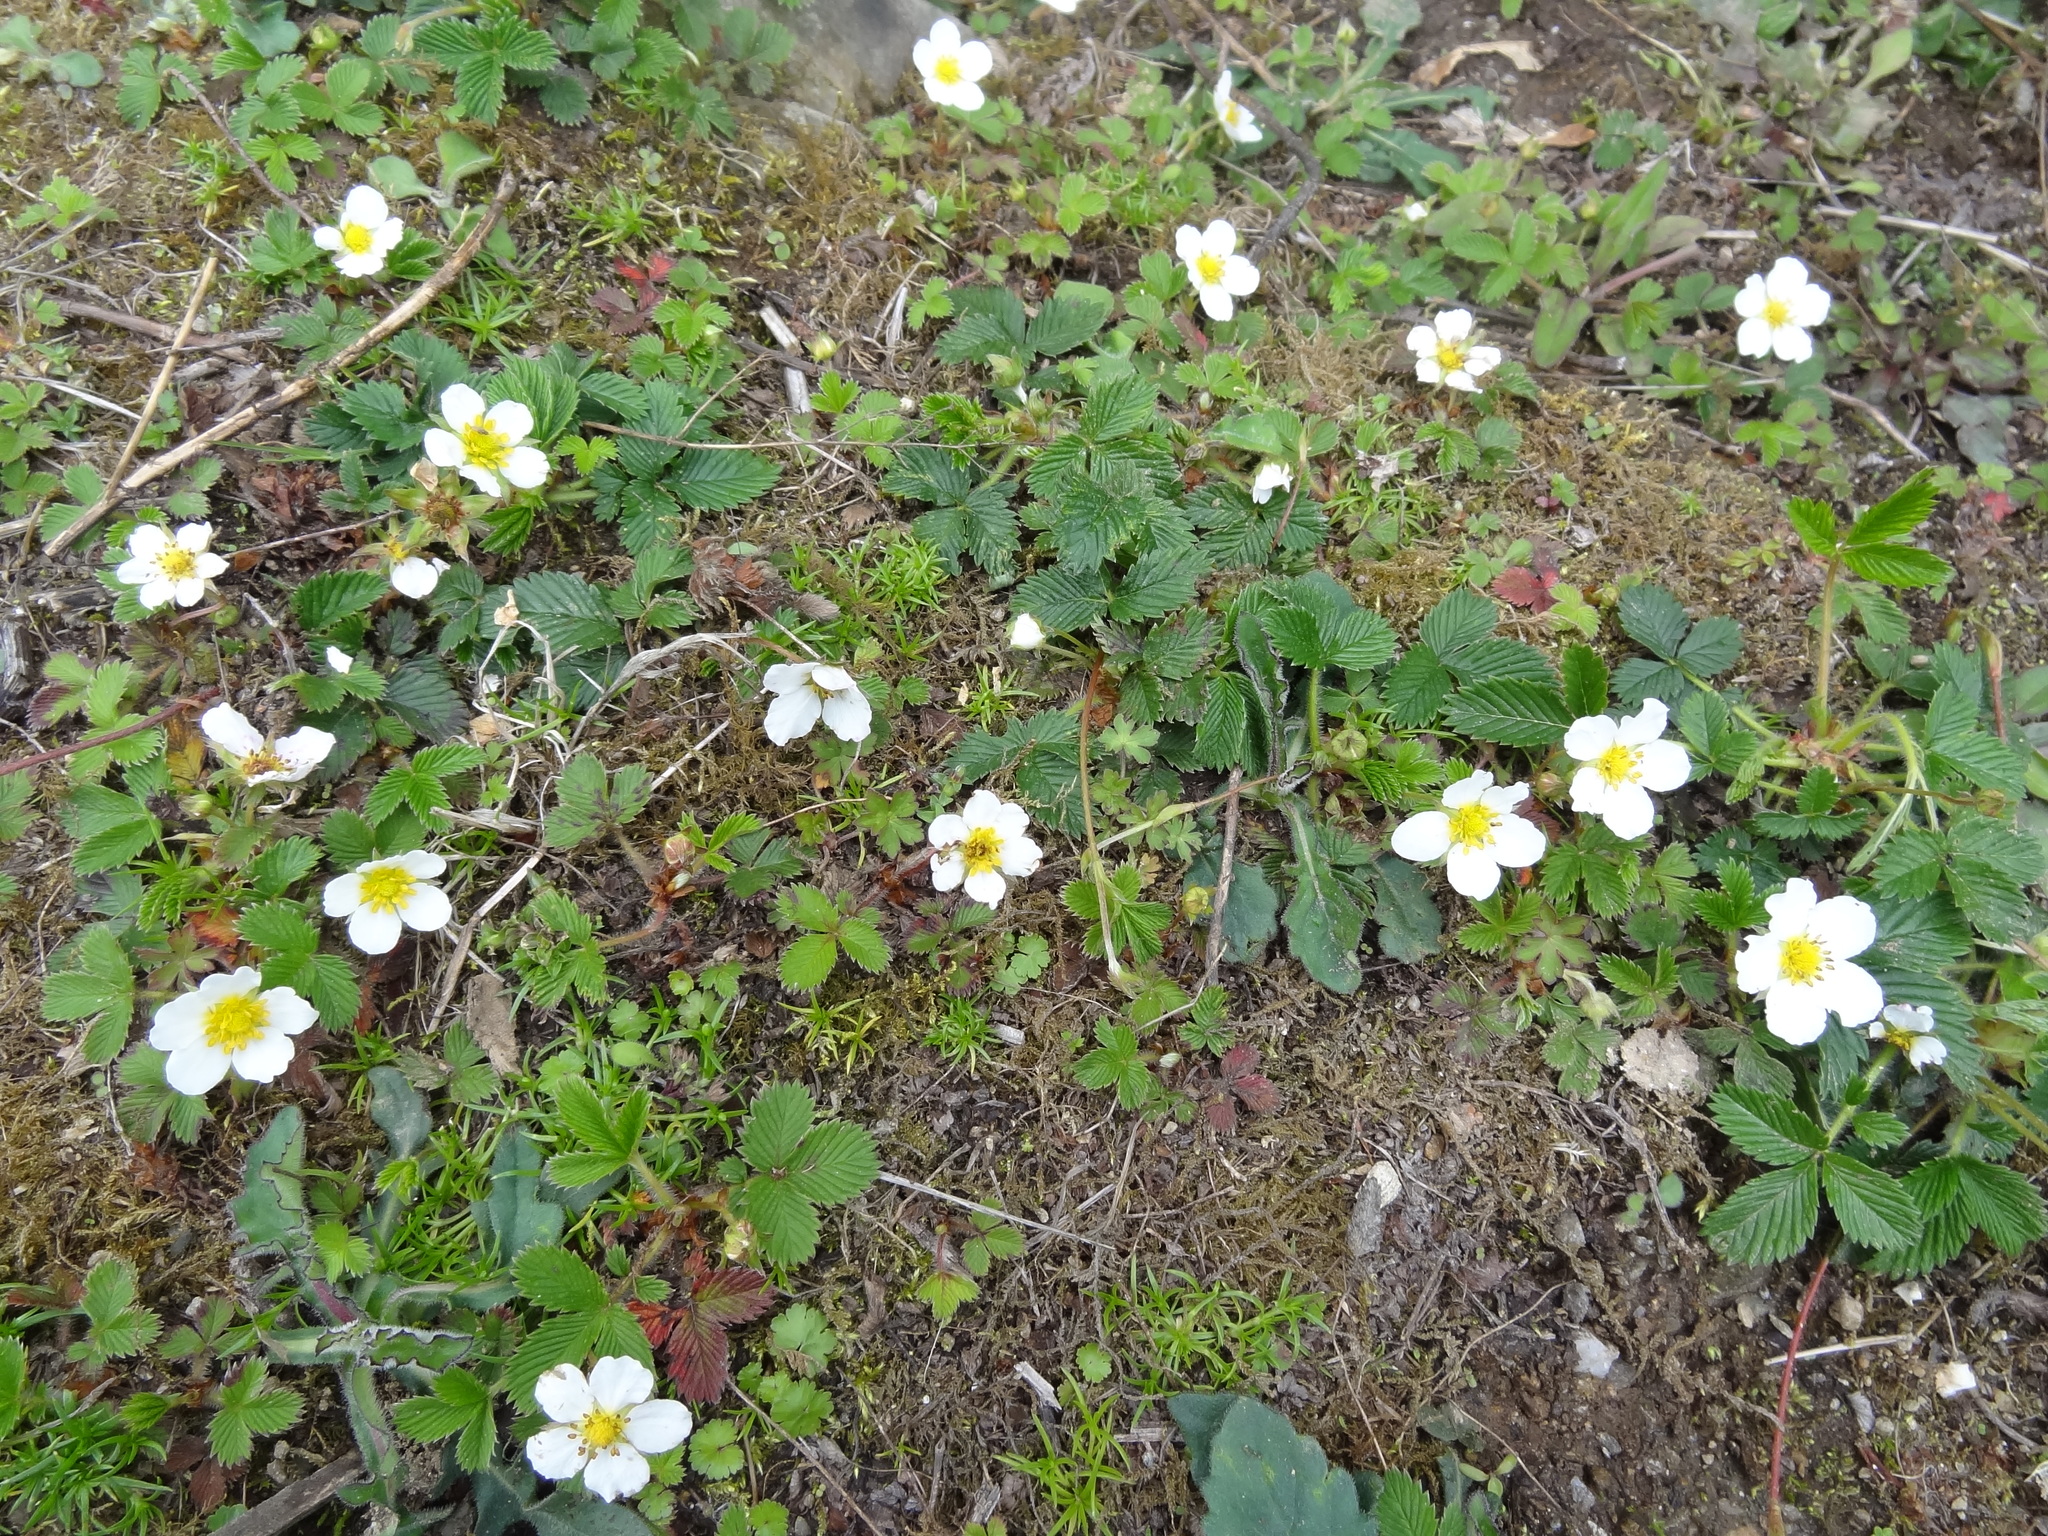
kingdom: Plantae
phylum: Tracheophyta
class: Magnoliopsida
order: Rosales
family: Rosaceae
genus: Fragaria
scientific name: Fragaria nubicola
